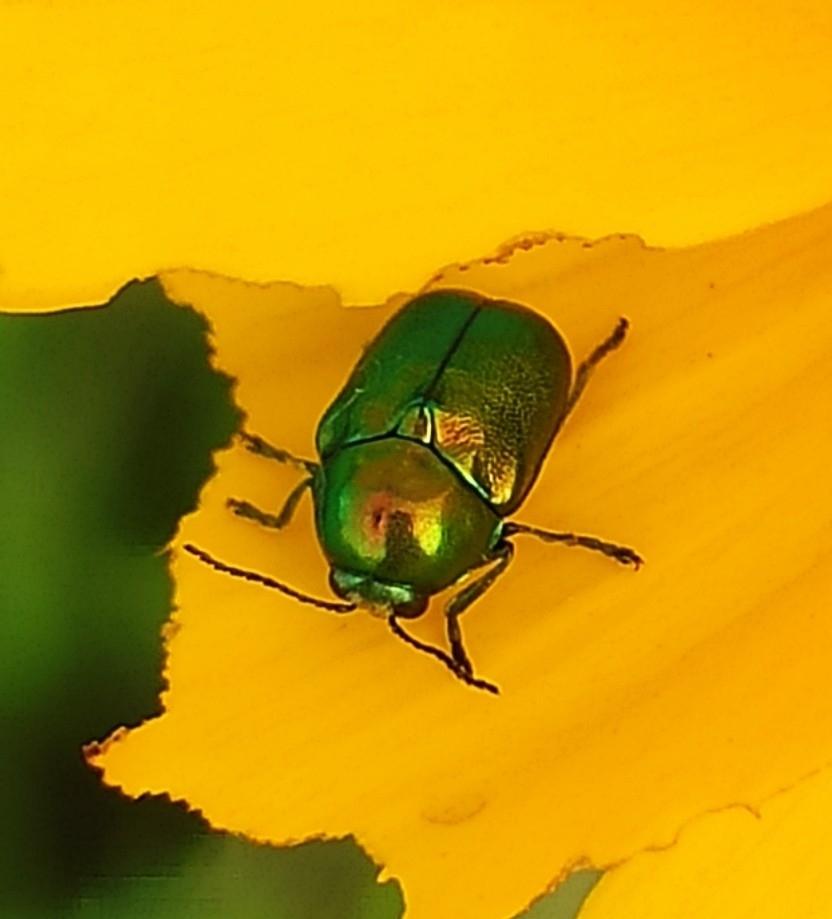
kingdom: Animalia
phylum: Arthropoda
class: Insecta
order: Coleoptera
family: Chrysomelidae
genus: Cryptocephalus
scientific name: Cryptocephalus sericeus
